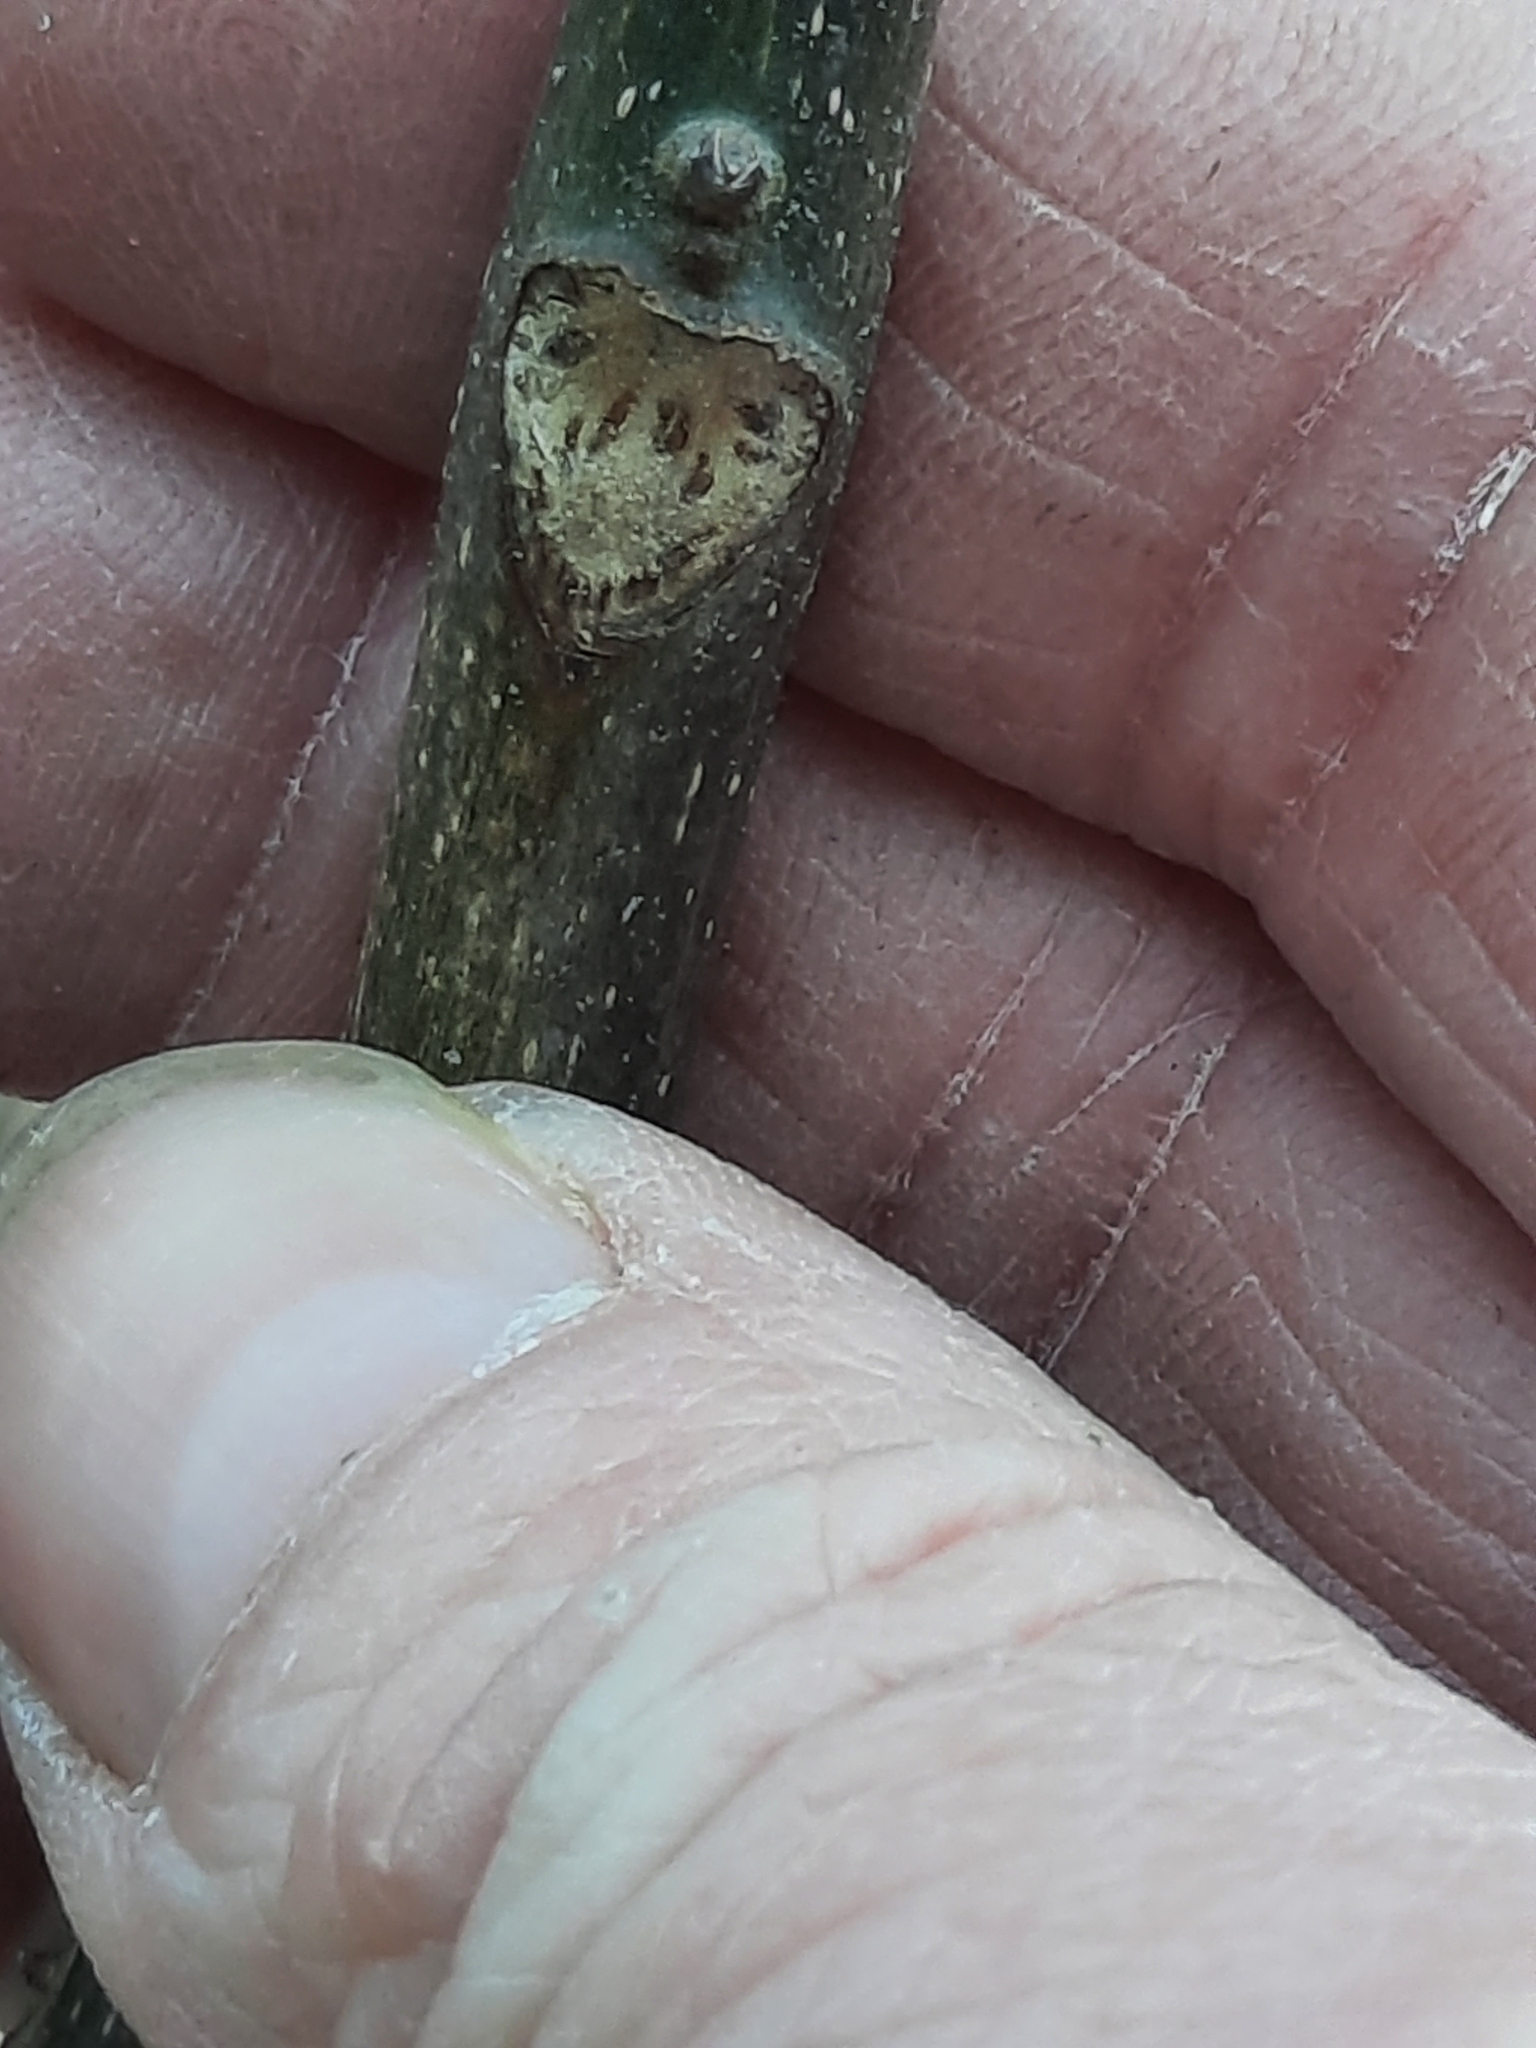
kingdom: Plantae
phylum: Tracheophyta
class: Magnoliopsida
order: Fagales
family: Juglandaceae
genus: Carya
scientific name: Carya ovata
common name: Shagbark hickory
